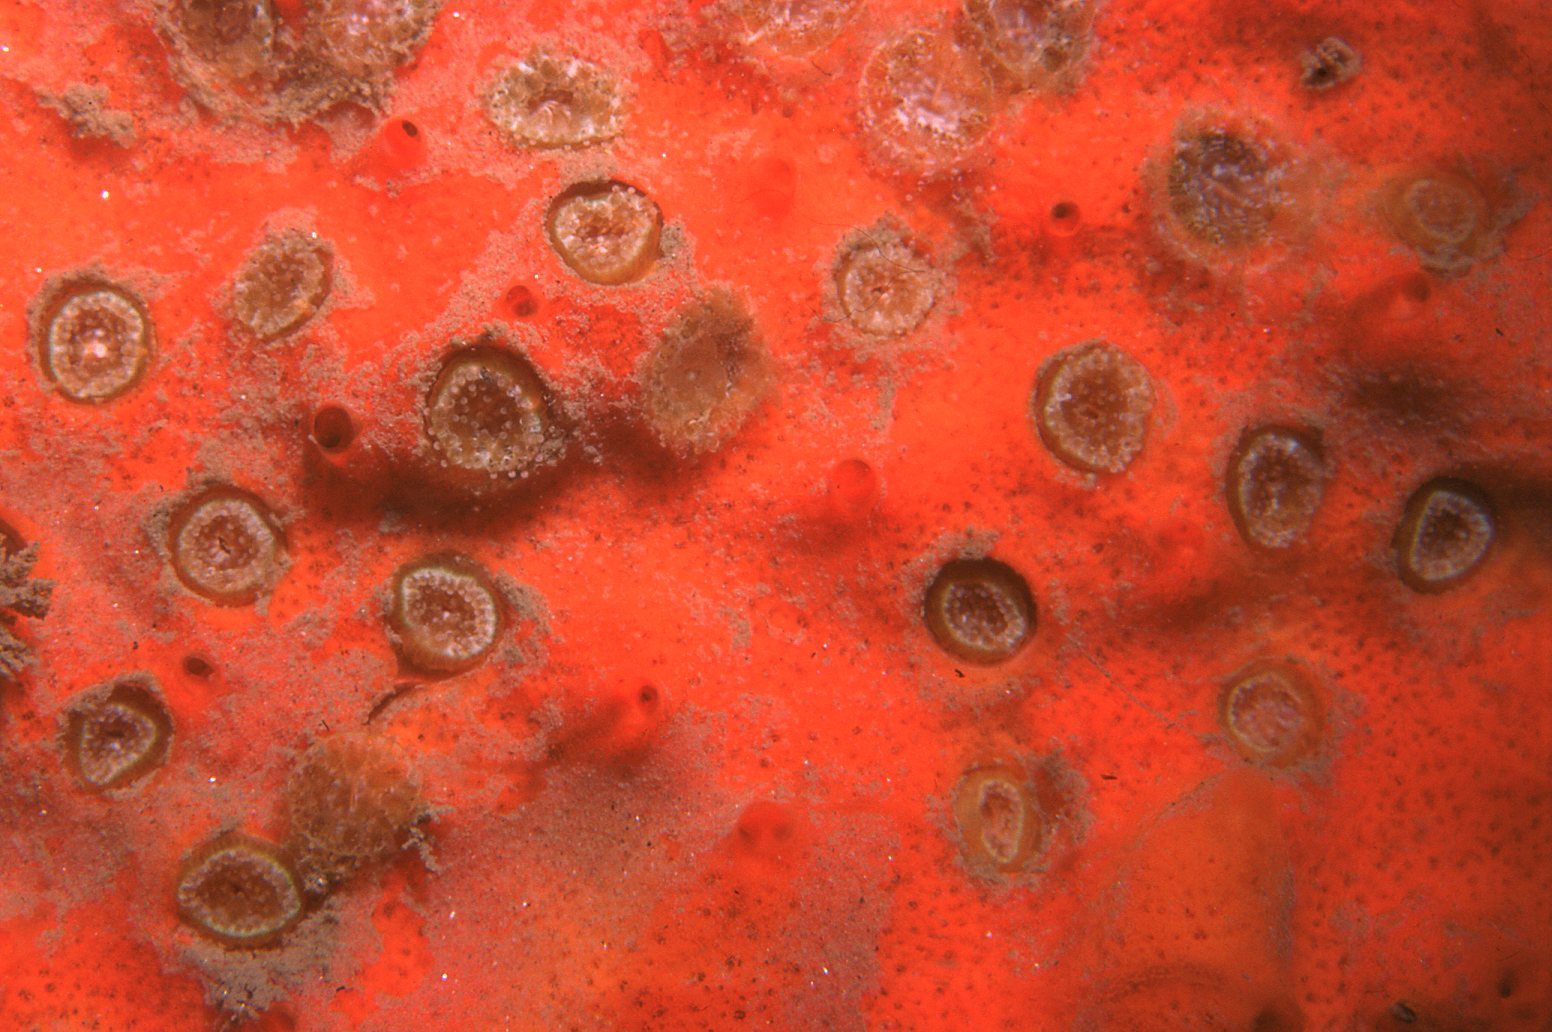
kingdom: Animalia
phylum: Cnidaria
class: Anthozoa
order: Scleractinia
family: Rhizangiidae
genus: Culicia
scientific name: Culicia tenella
